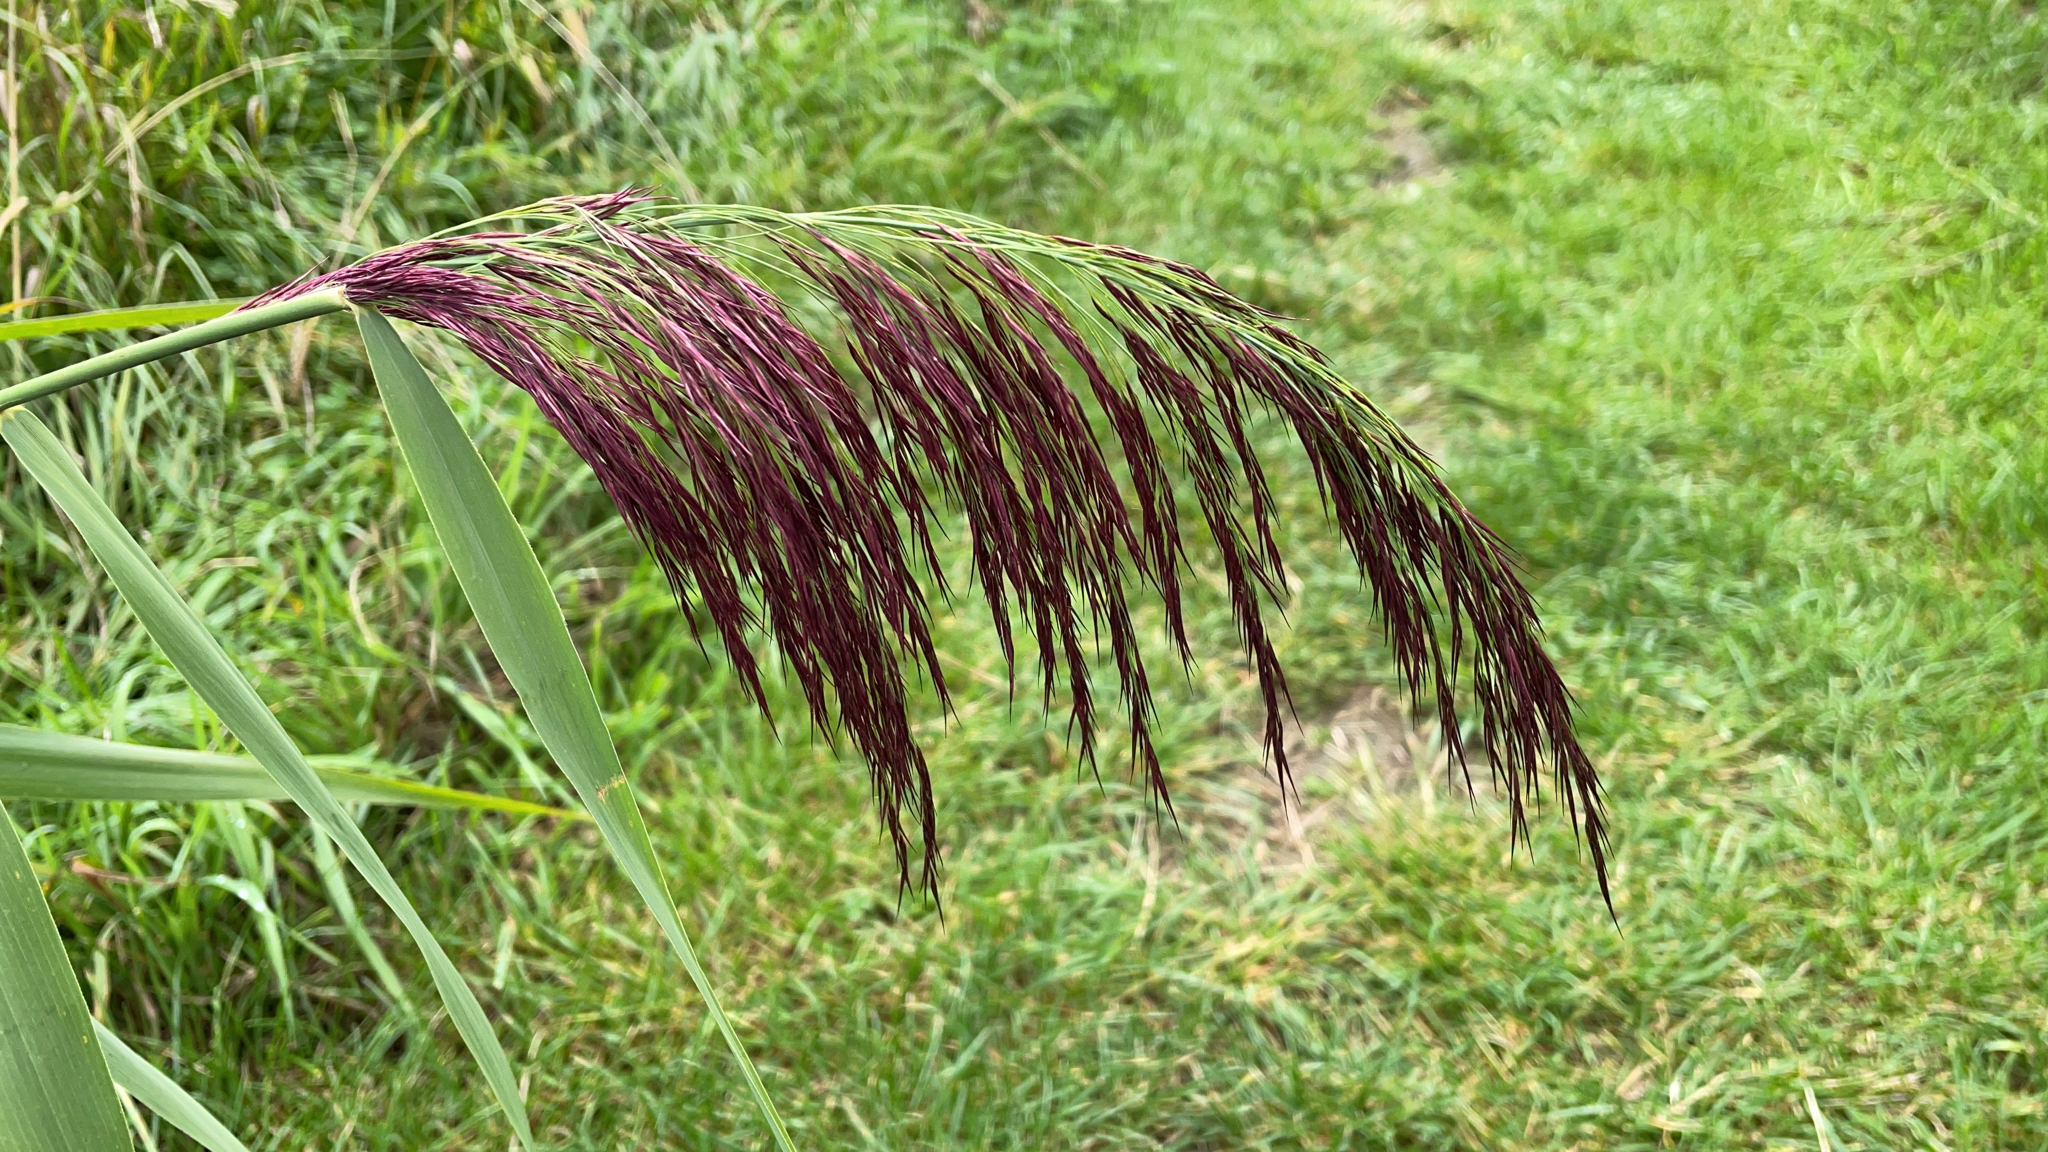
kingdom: Plantae
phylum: Tracheophyta
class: Liliopsida
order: Poales
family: Poaceae
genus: Phragmites
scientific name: Phragmites australis
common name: Common reed
